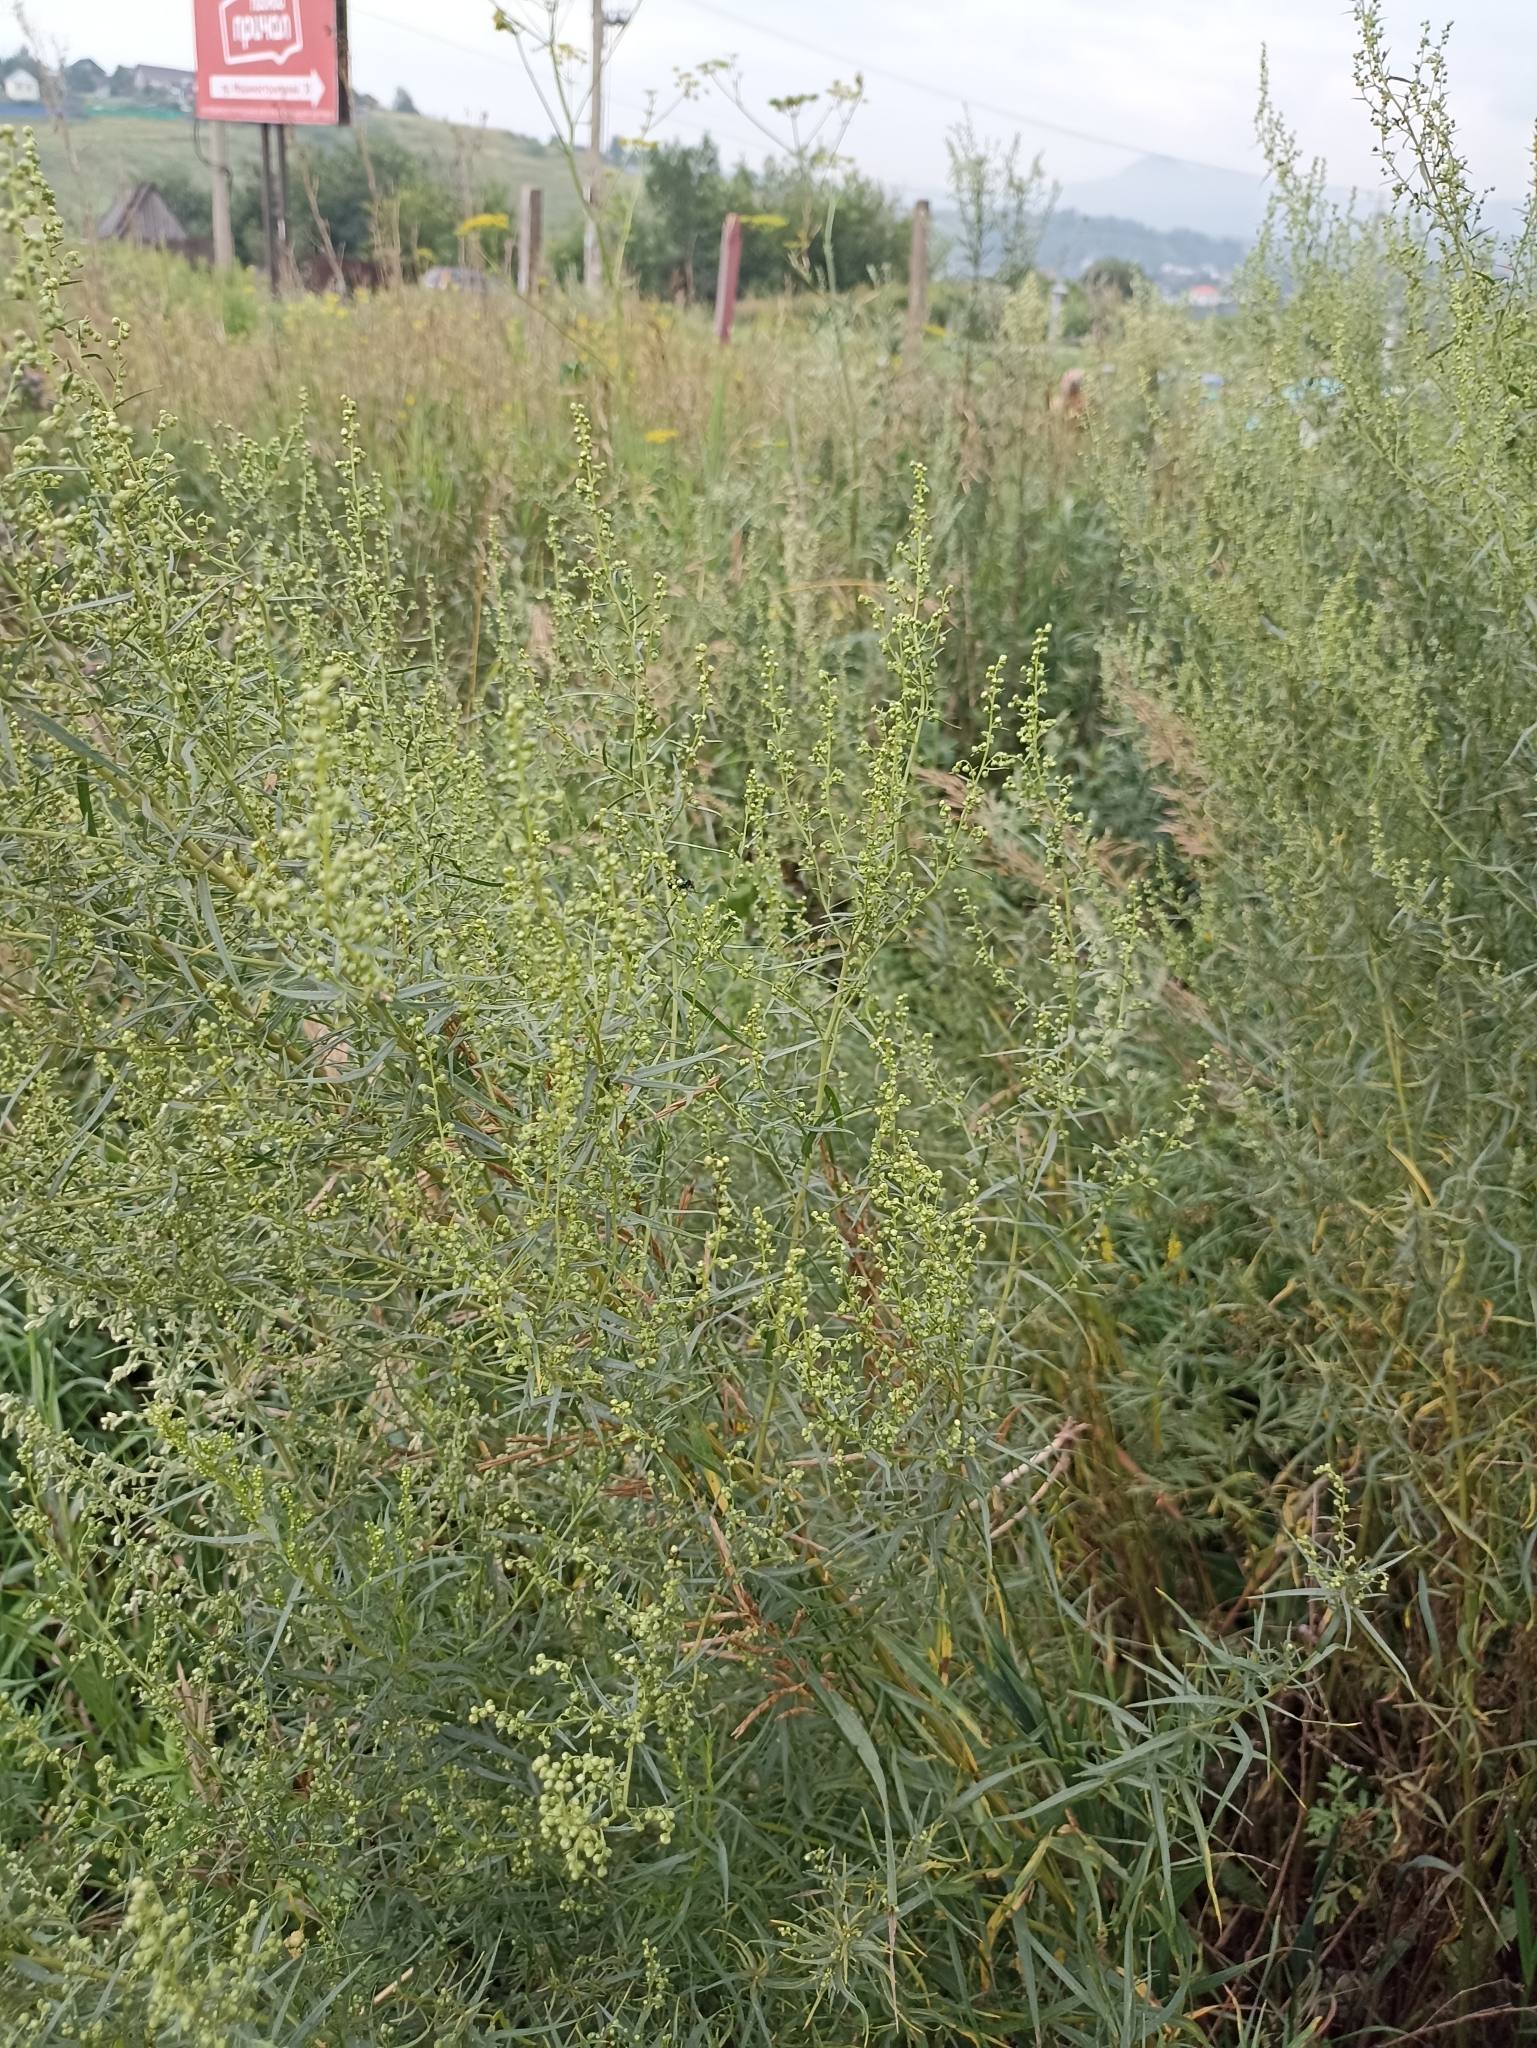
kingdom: Plantae
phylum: Tracheophyta
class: Magnoliopsida
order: Asterales
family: Asteraceae
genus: Artemisia
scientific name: Artemisia dracunculus
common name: Tarragon
